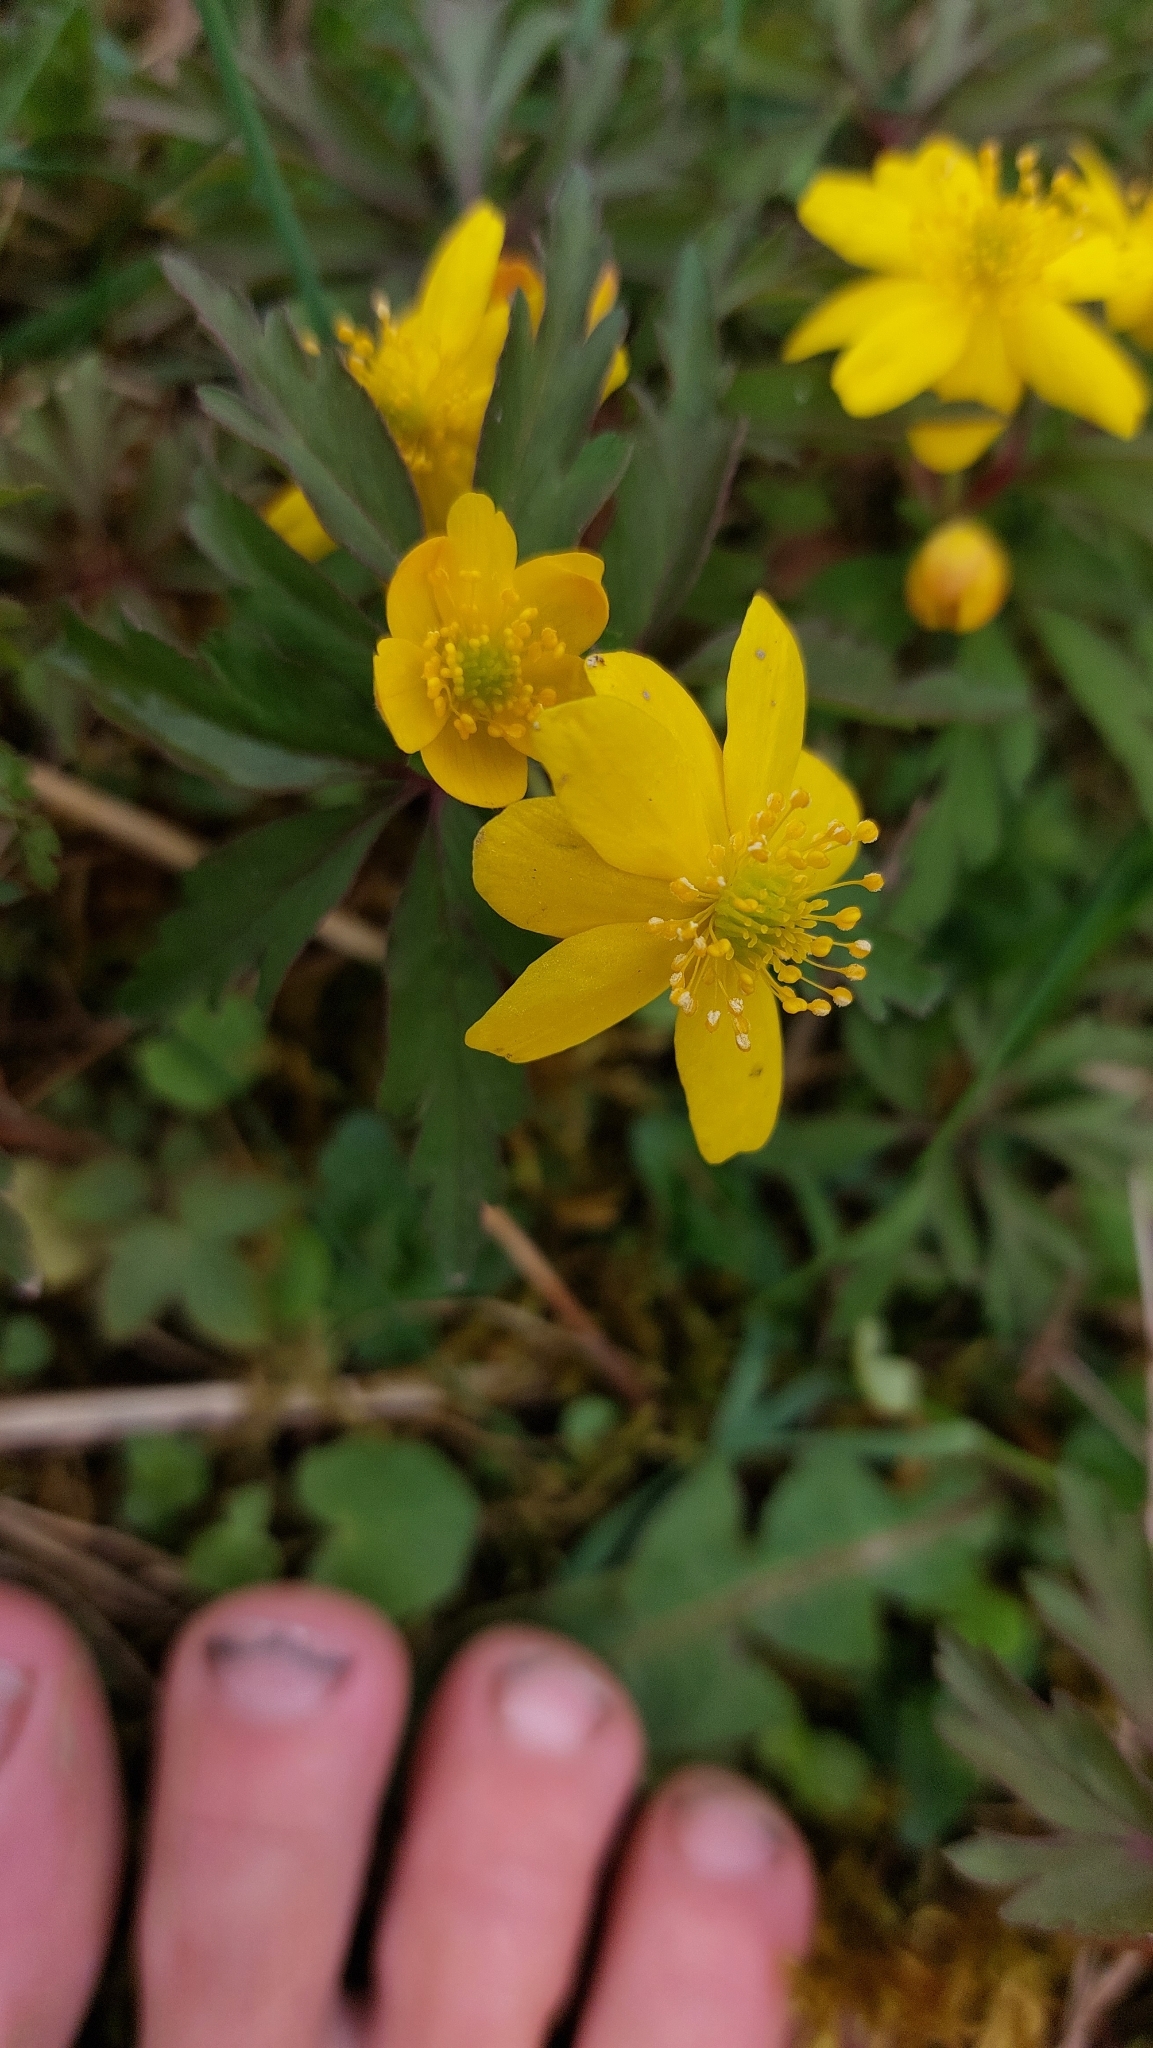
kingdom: Plantae
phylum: Tracheophyta
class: Magnoliopsida
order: Ranunculales
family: Ranunculaceae
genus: Anemone
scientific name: Anemone ranunculoides
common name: Yellow anemone
